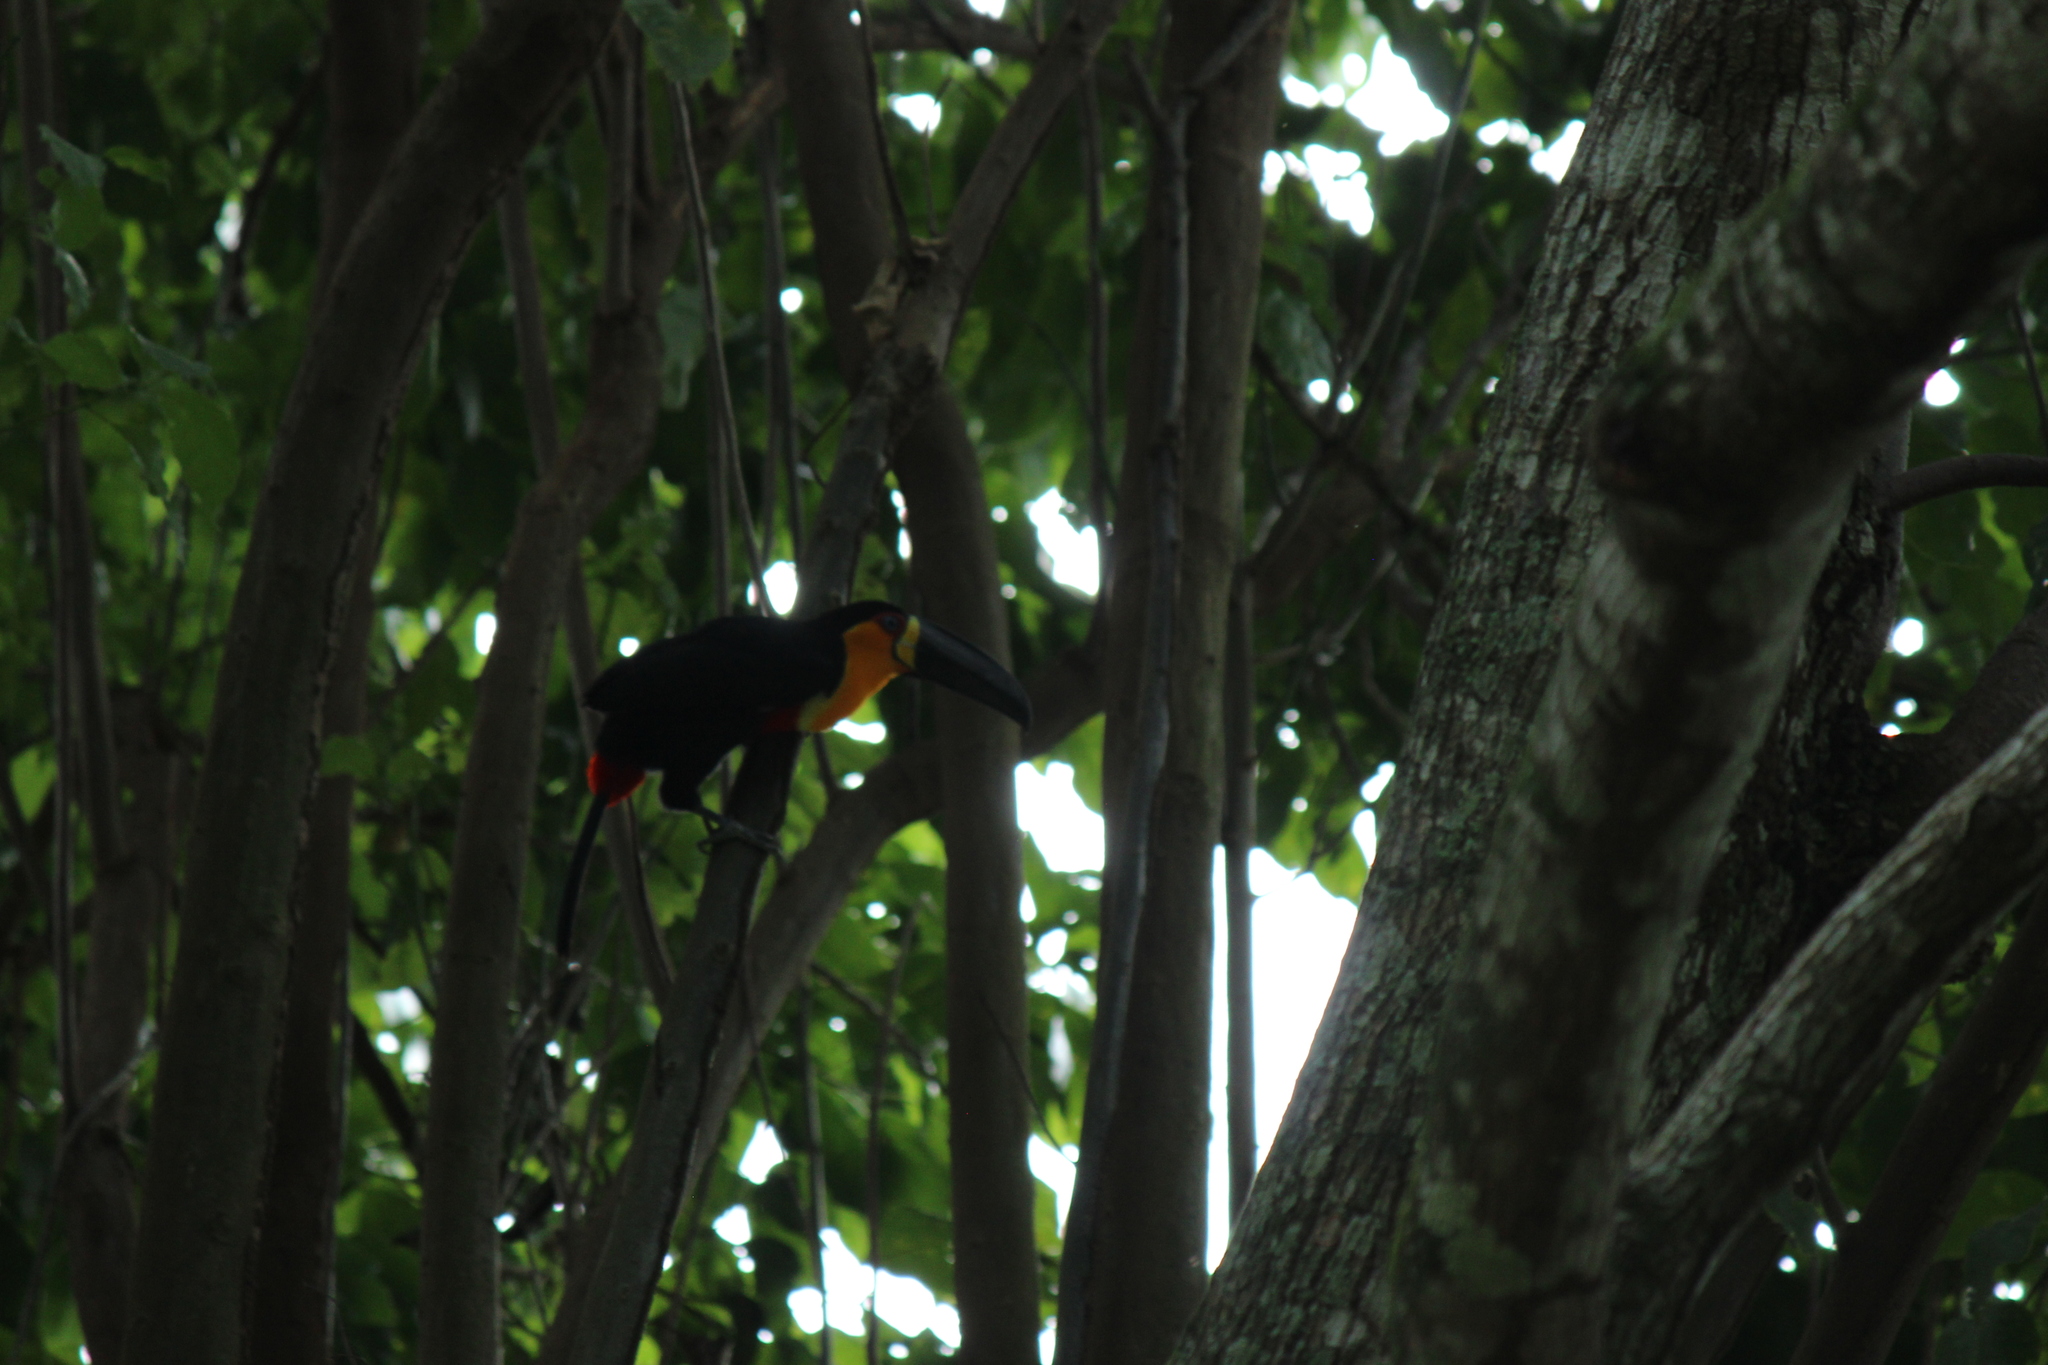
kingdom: Animalia
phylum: Chordata
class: Aves
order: Piciformes
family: Ramphastidae
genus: Ramphastos
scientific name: Ramphastos vitellinus
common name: Channel-billed toucan
